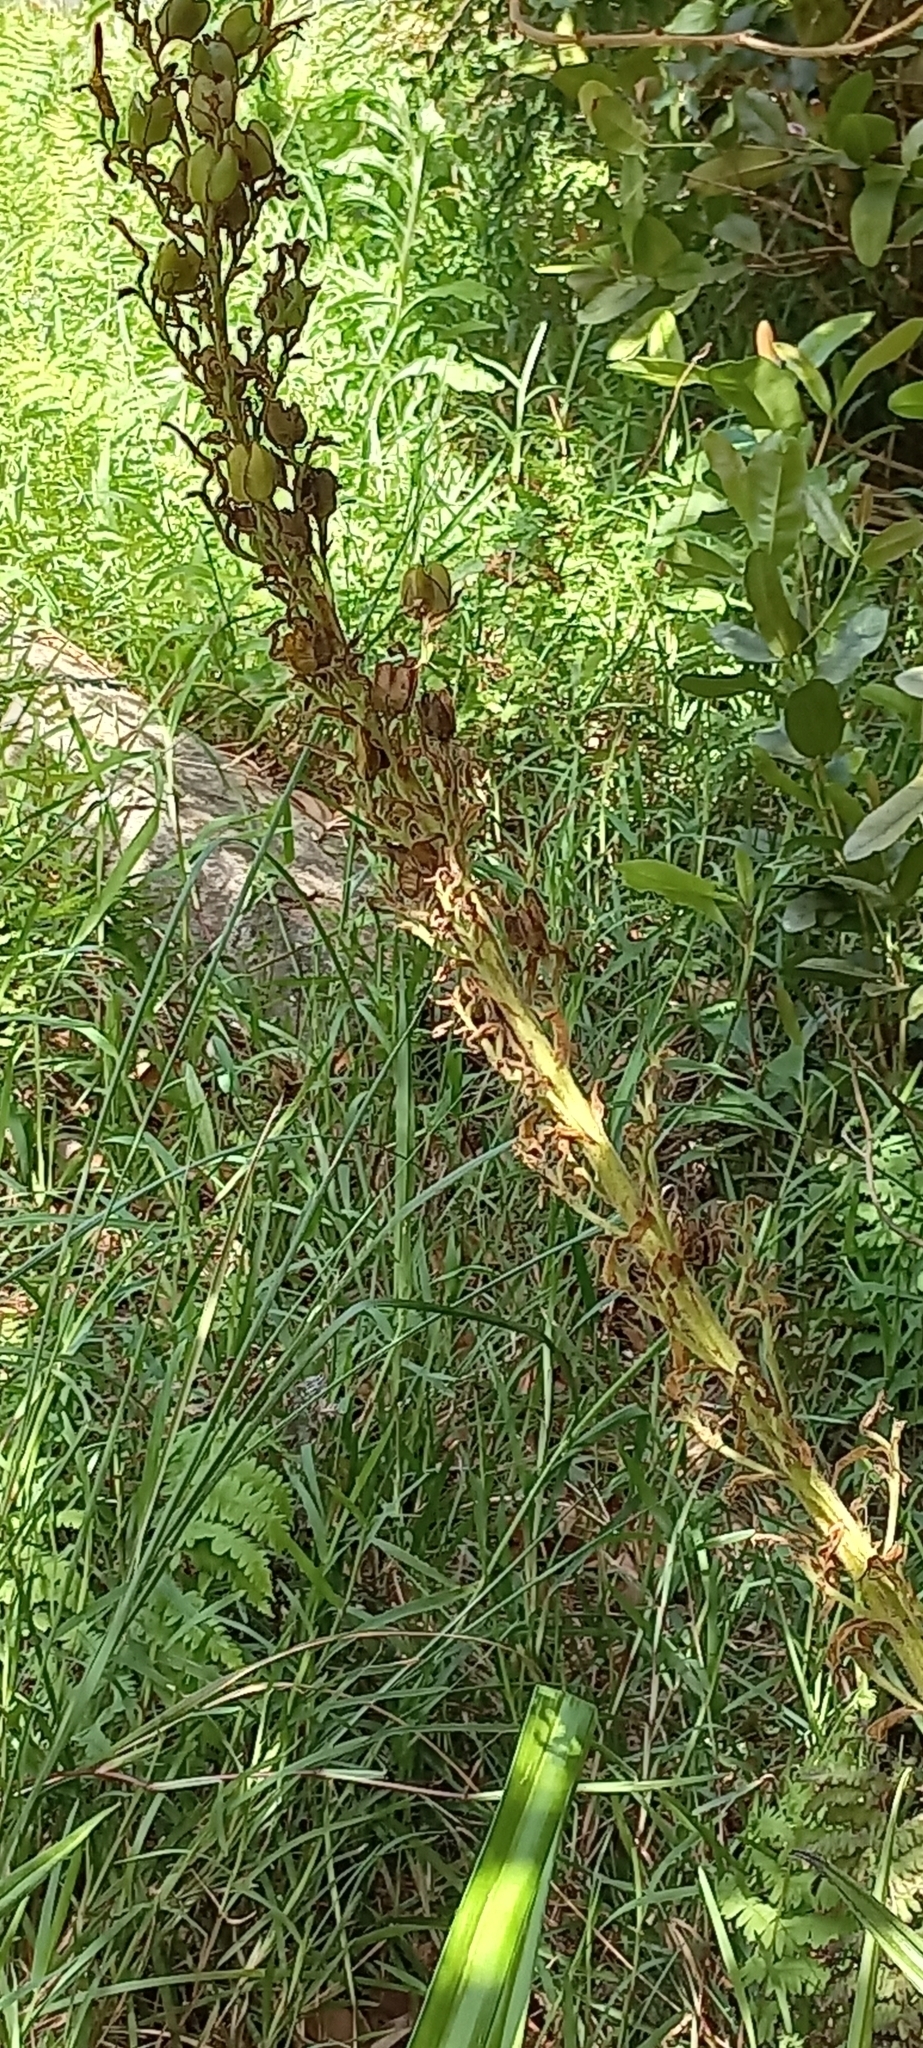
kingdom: Plantae
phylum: Tracheophyta
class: Liliopsida
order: Commelinales
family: Haemodoraceae
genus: Wachendorfia
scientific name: Wachendorfia thyrsiflora
